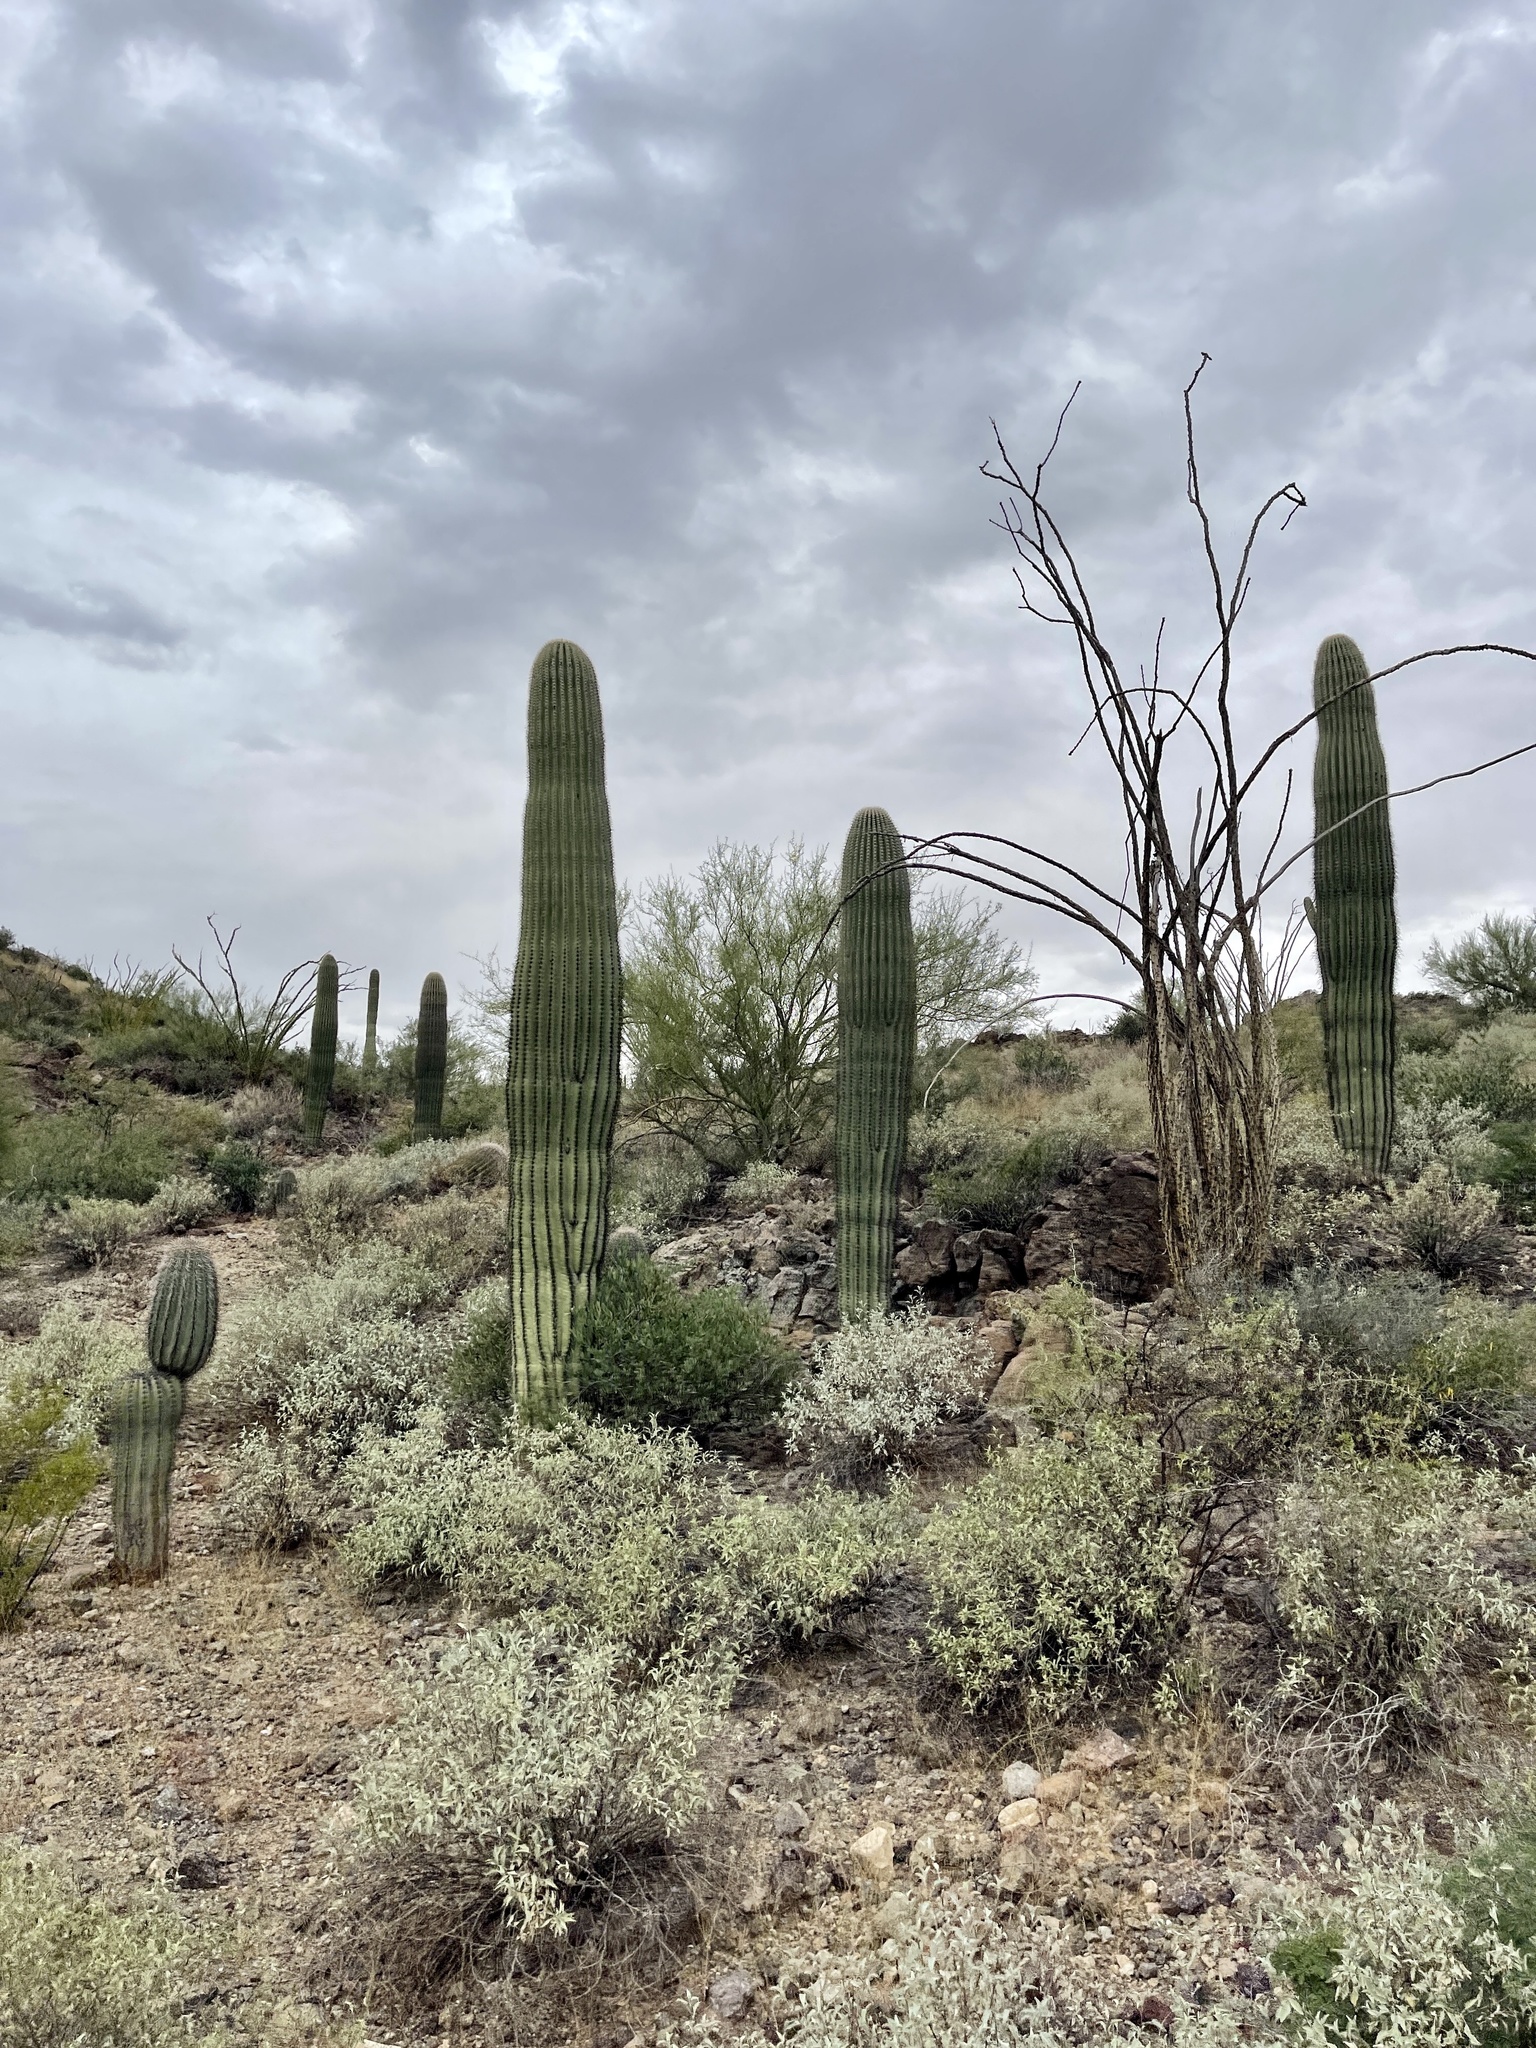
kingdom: Plantae
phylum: Tracheophyta
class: Magnoliopsida
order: Caryophyllales
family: Cactaceae
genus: Carnegiea
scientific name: Carnegiea gigantea
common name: Saguaro
